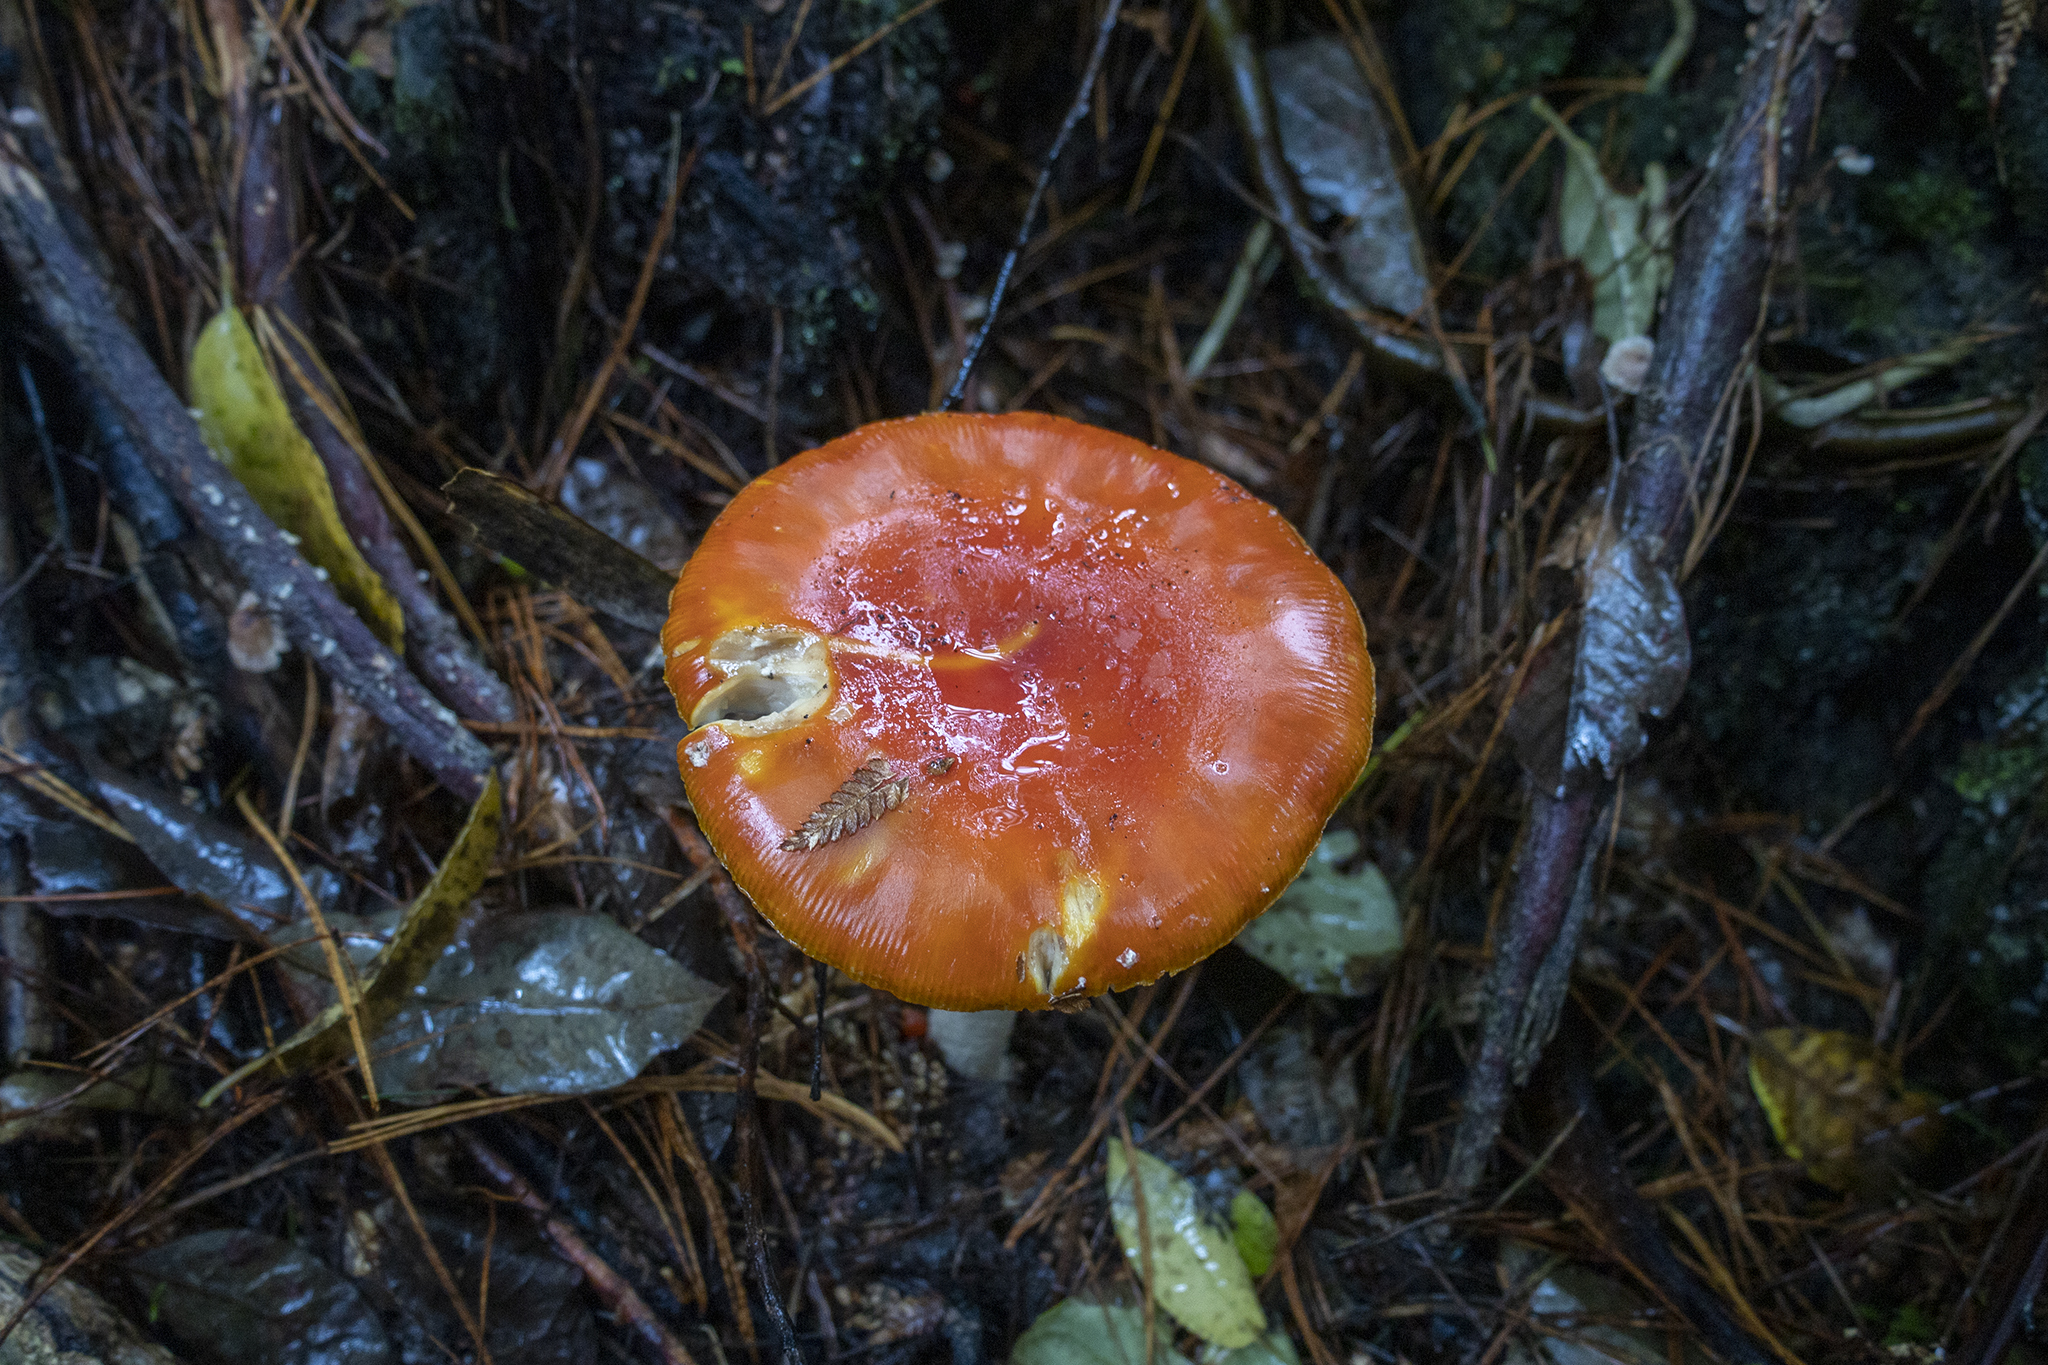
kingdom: Fungi
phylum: Basidiomycota
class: Agaricomycetes
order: Agaricales
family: Amanitaceae
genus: Amanita
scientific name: Amanita muscaria
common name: Fly agaric
